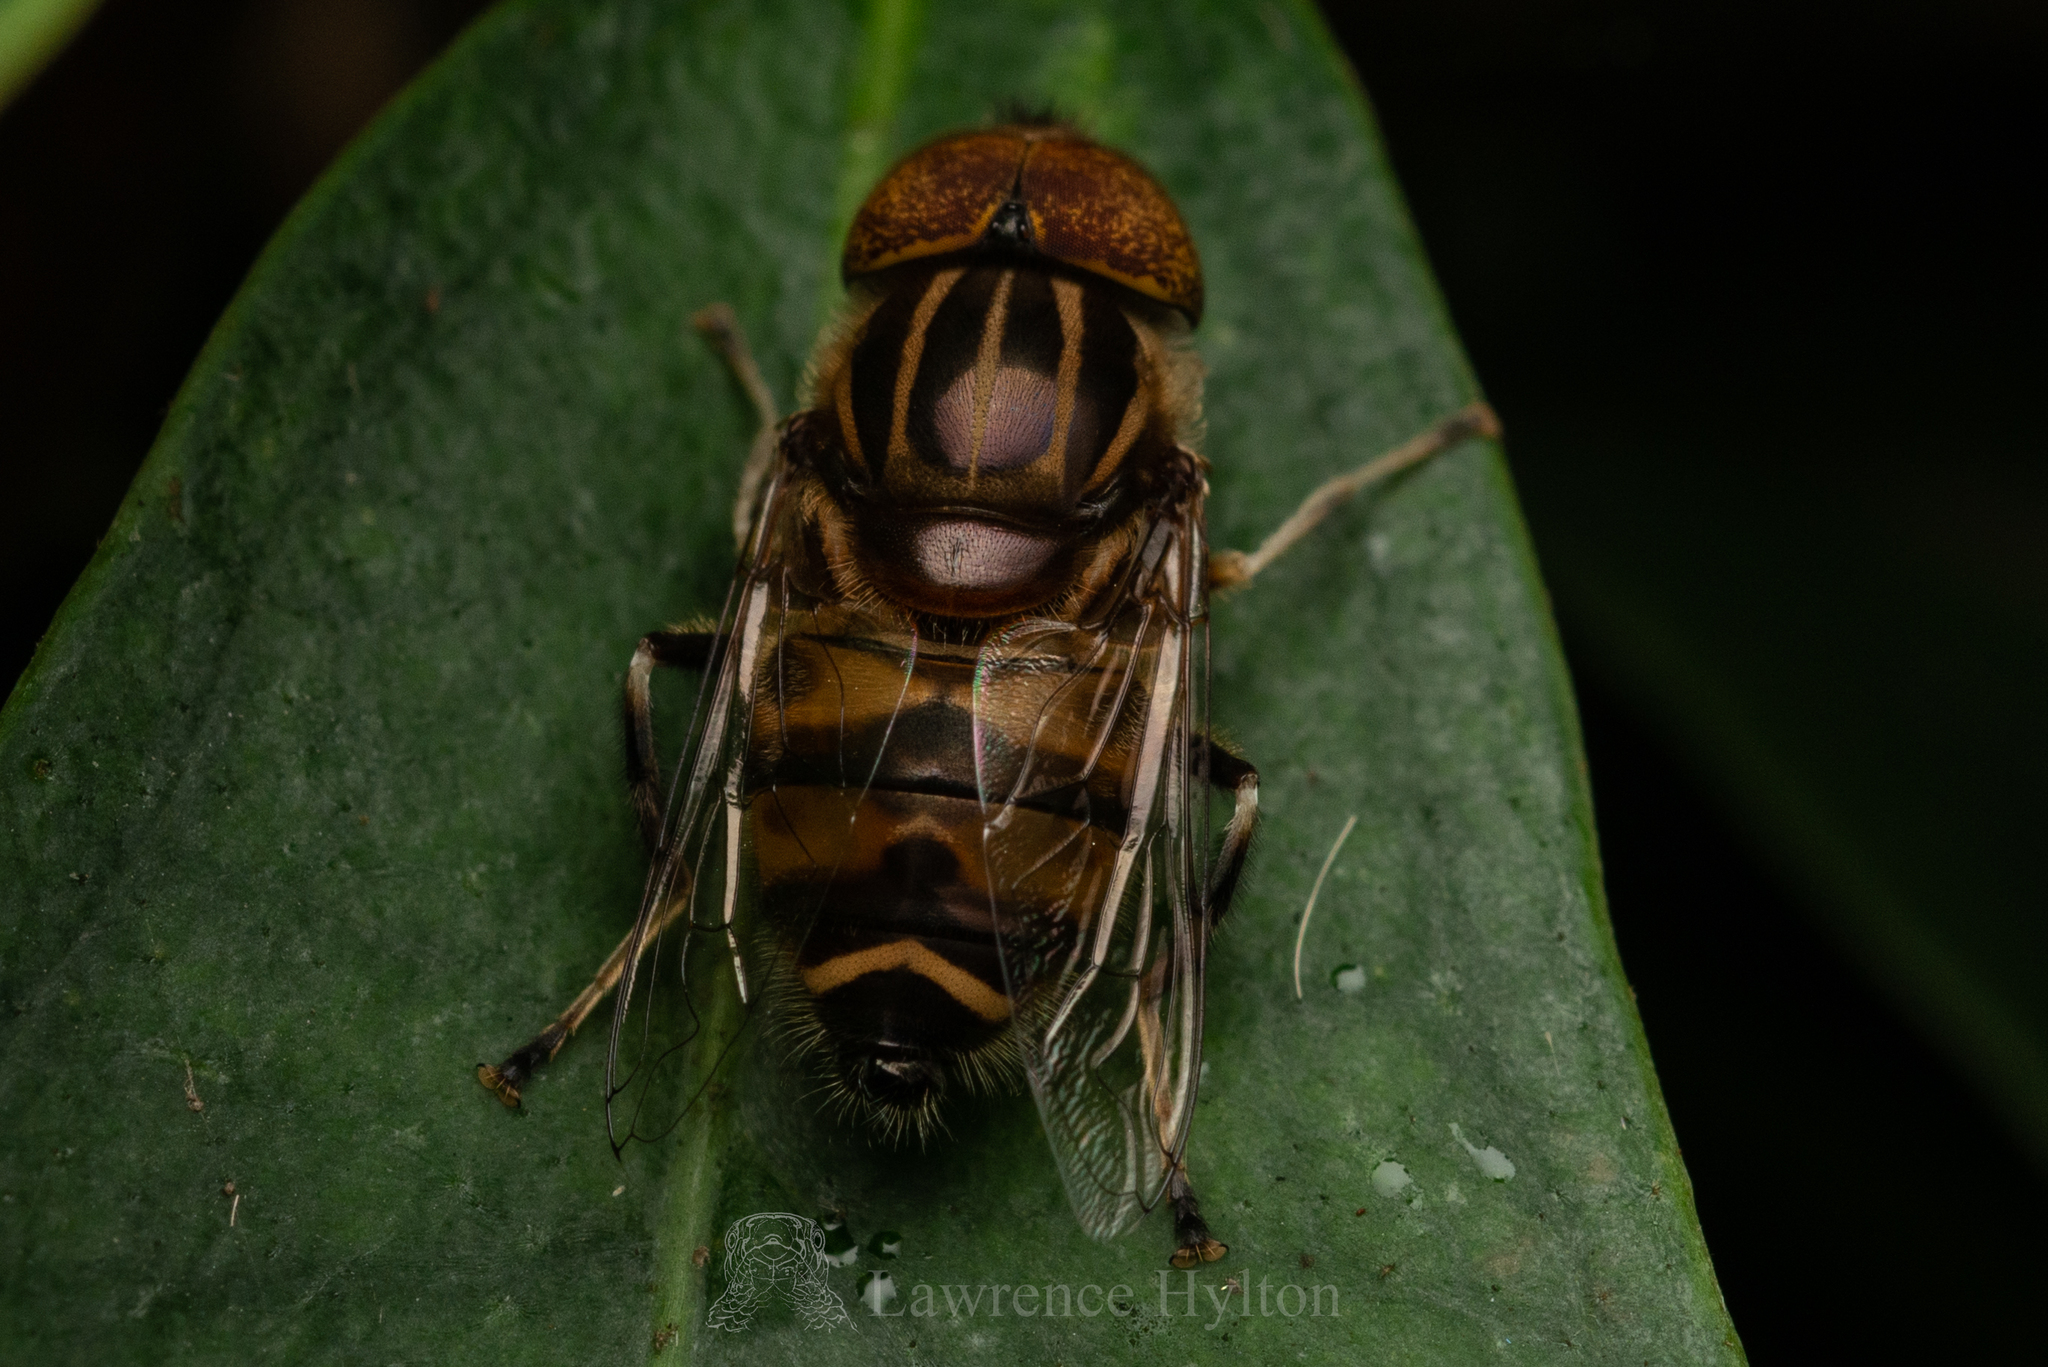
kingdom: Animalia
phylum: Arthropoda
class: Insecta
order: Diptera
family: Syrphidae
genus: Eristalinus
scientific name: Eristalinus quinquestriatus
